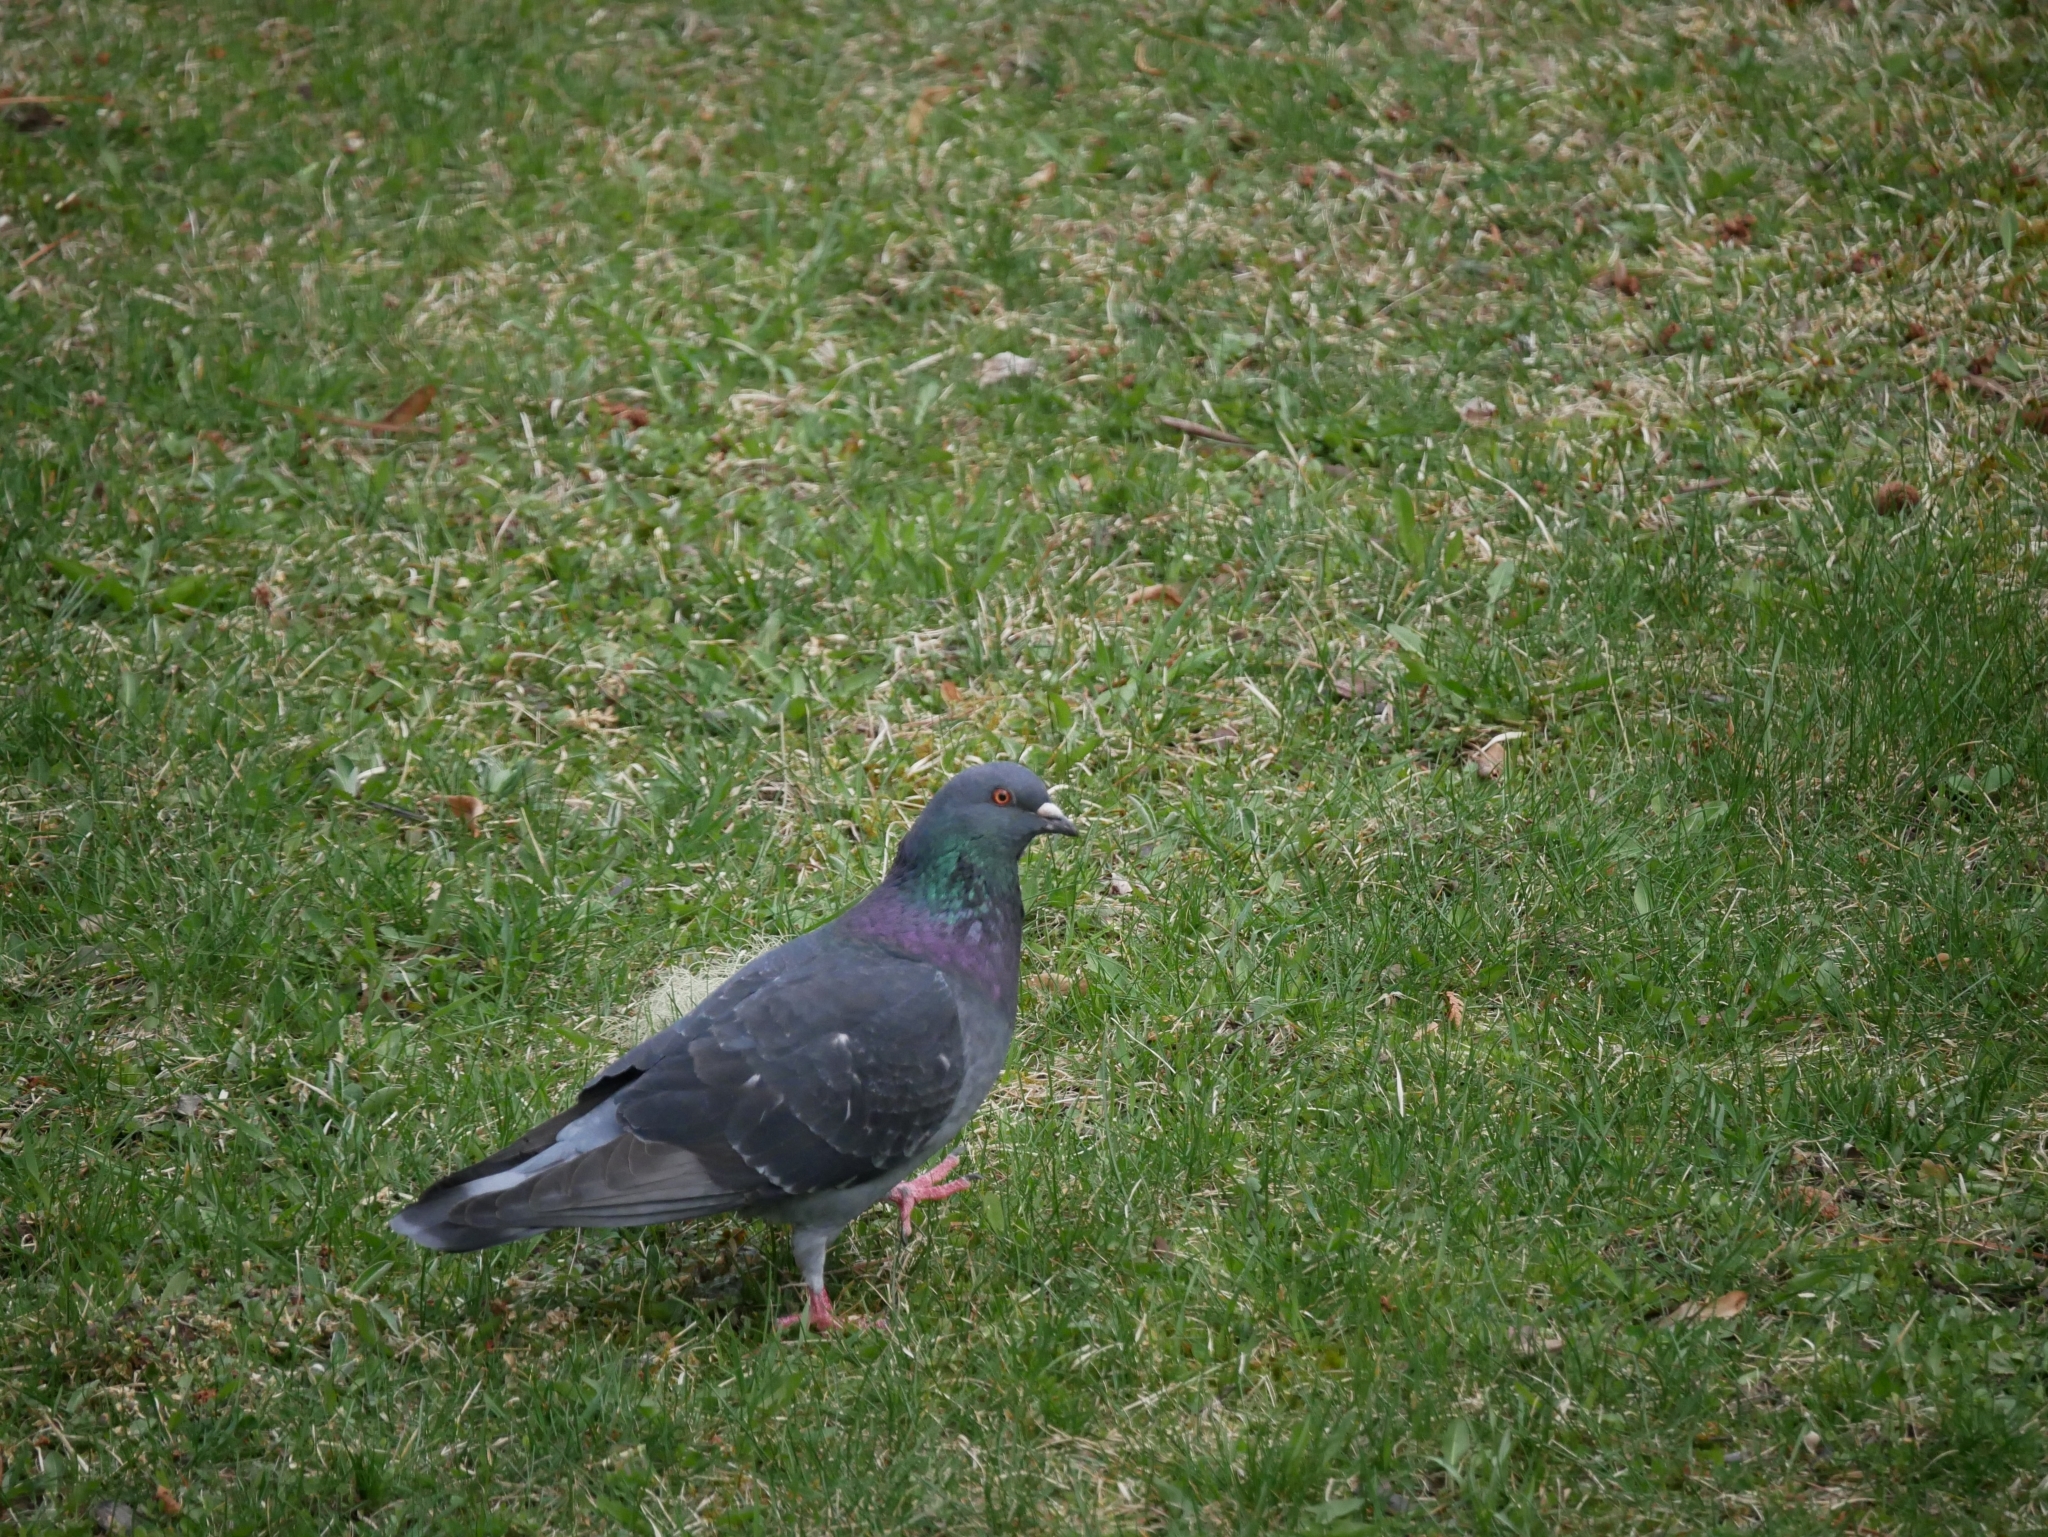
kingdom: Animalia
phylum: Chordata
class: Aves
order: Columbiformes
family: Columbidae
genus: Columba
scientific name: Columba livia
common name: Rock pigeon
